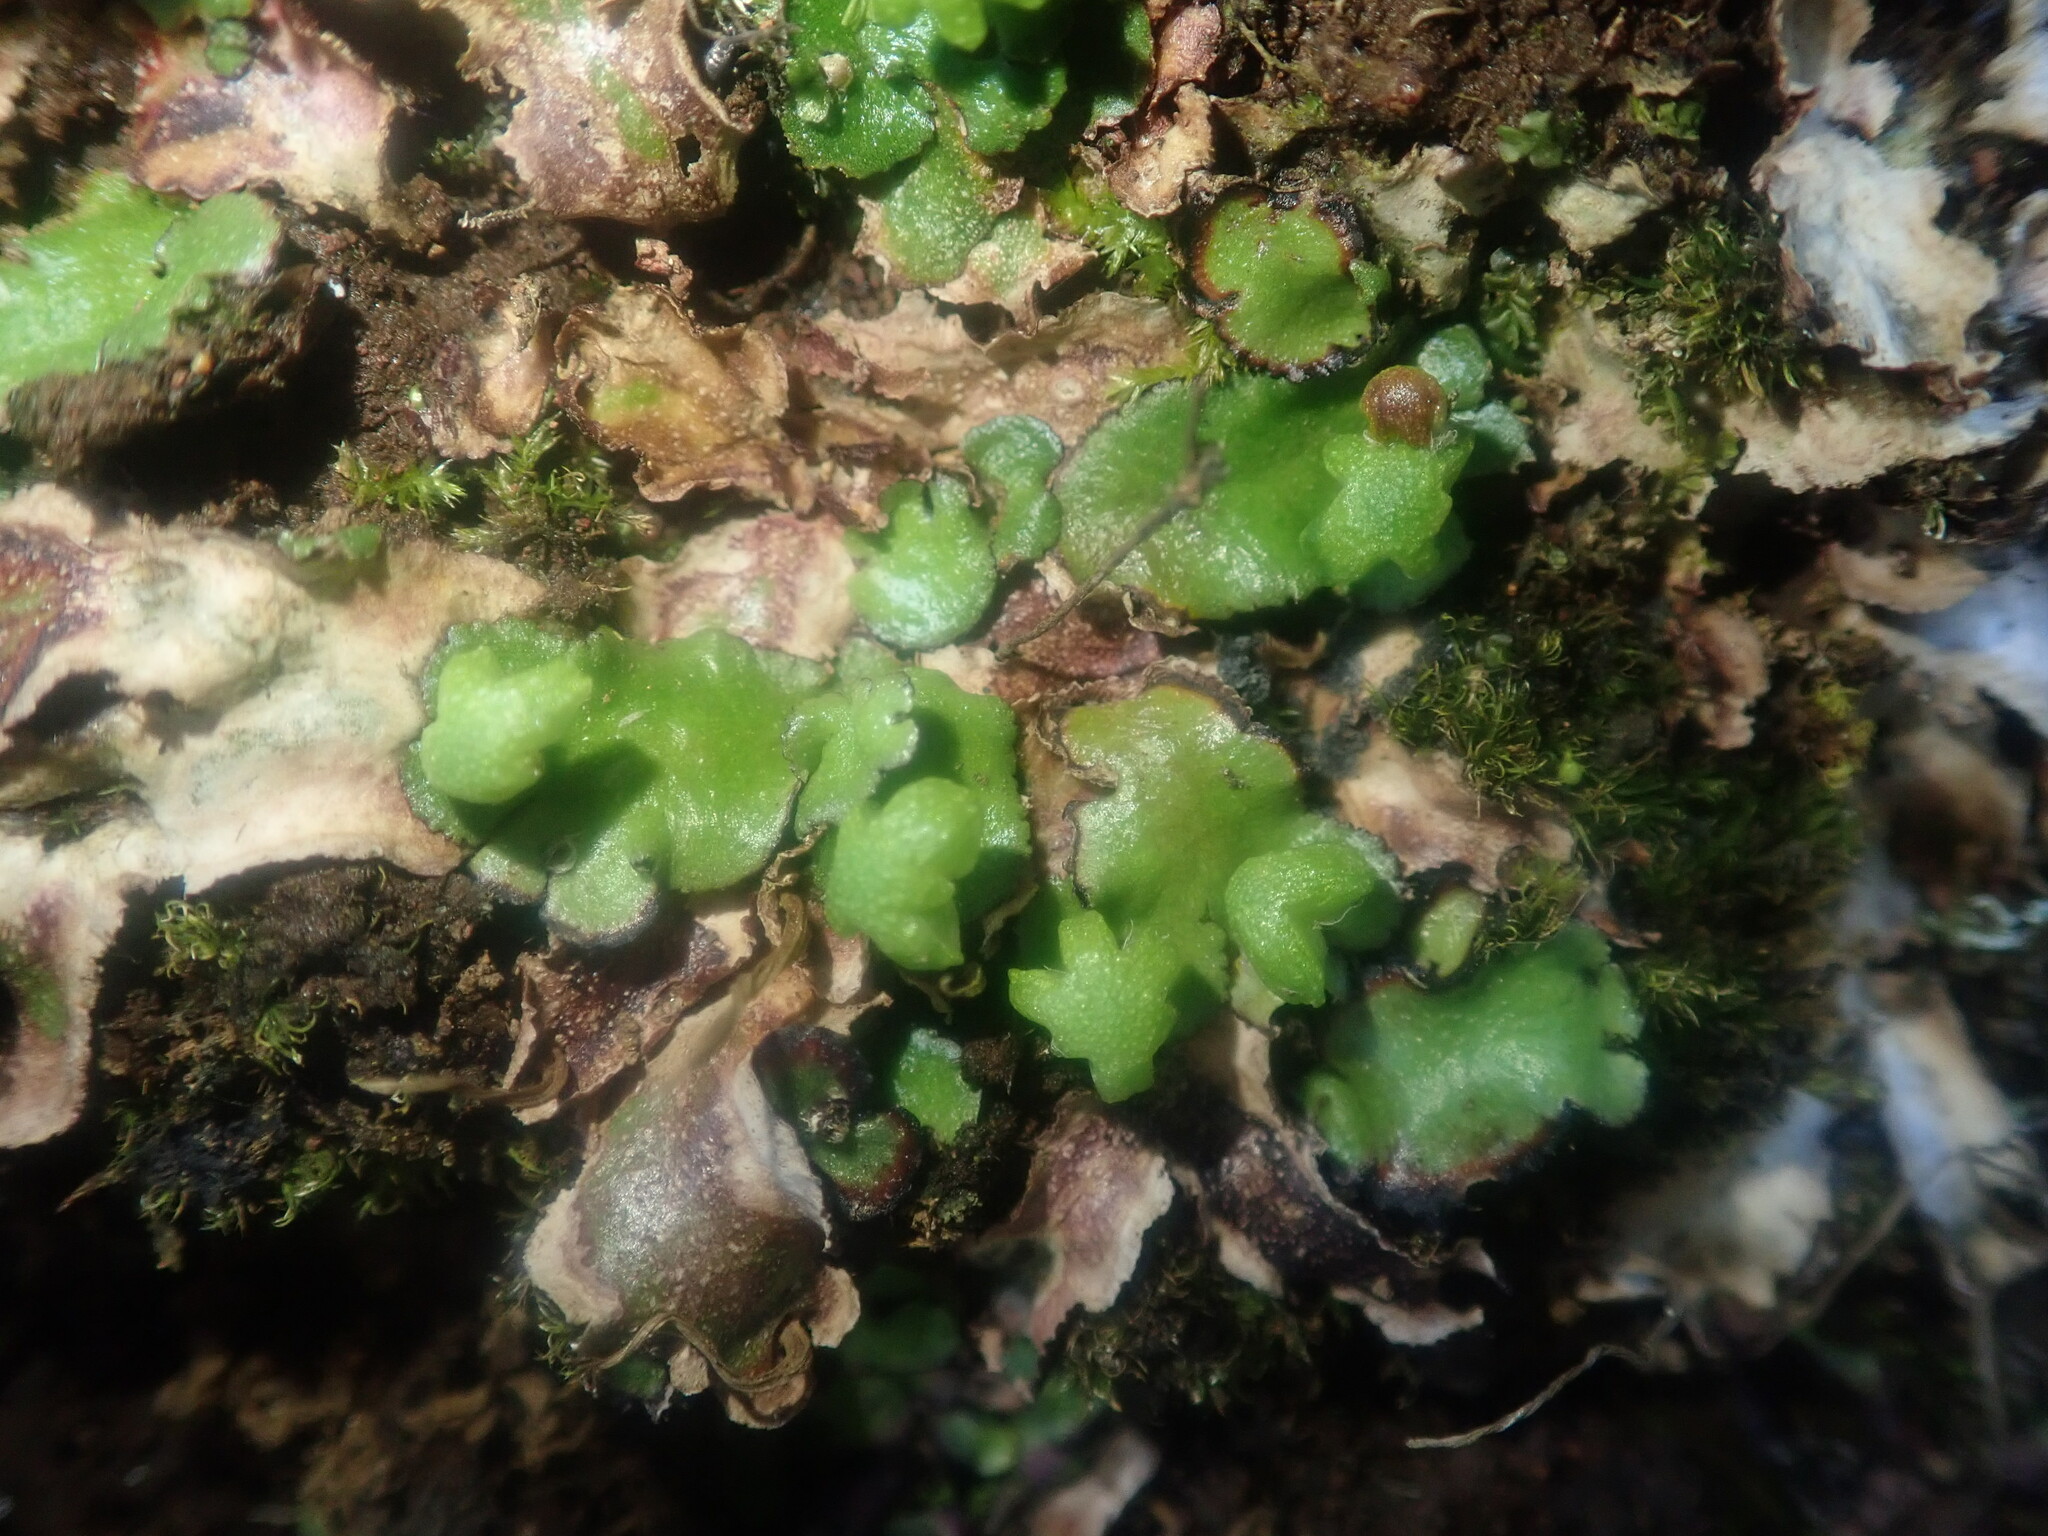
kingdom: Plantae
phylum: Marchantiophyta
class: Marchantiopsida
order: Marchantiales
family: Aytoniaceae
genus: Reboulia
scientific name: Reboulia hemisphaerica
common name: Purple-margined liverwort
